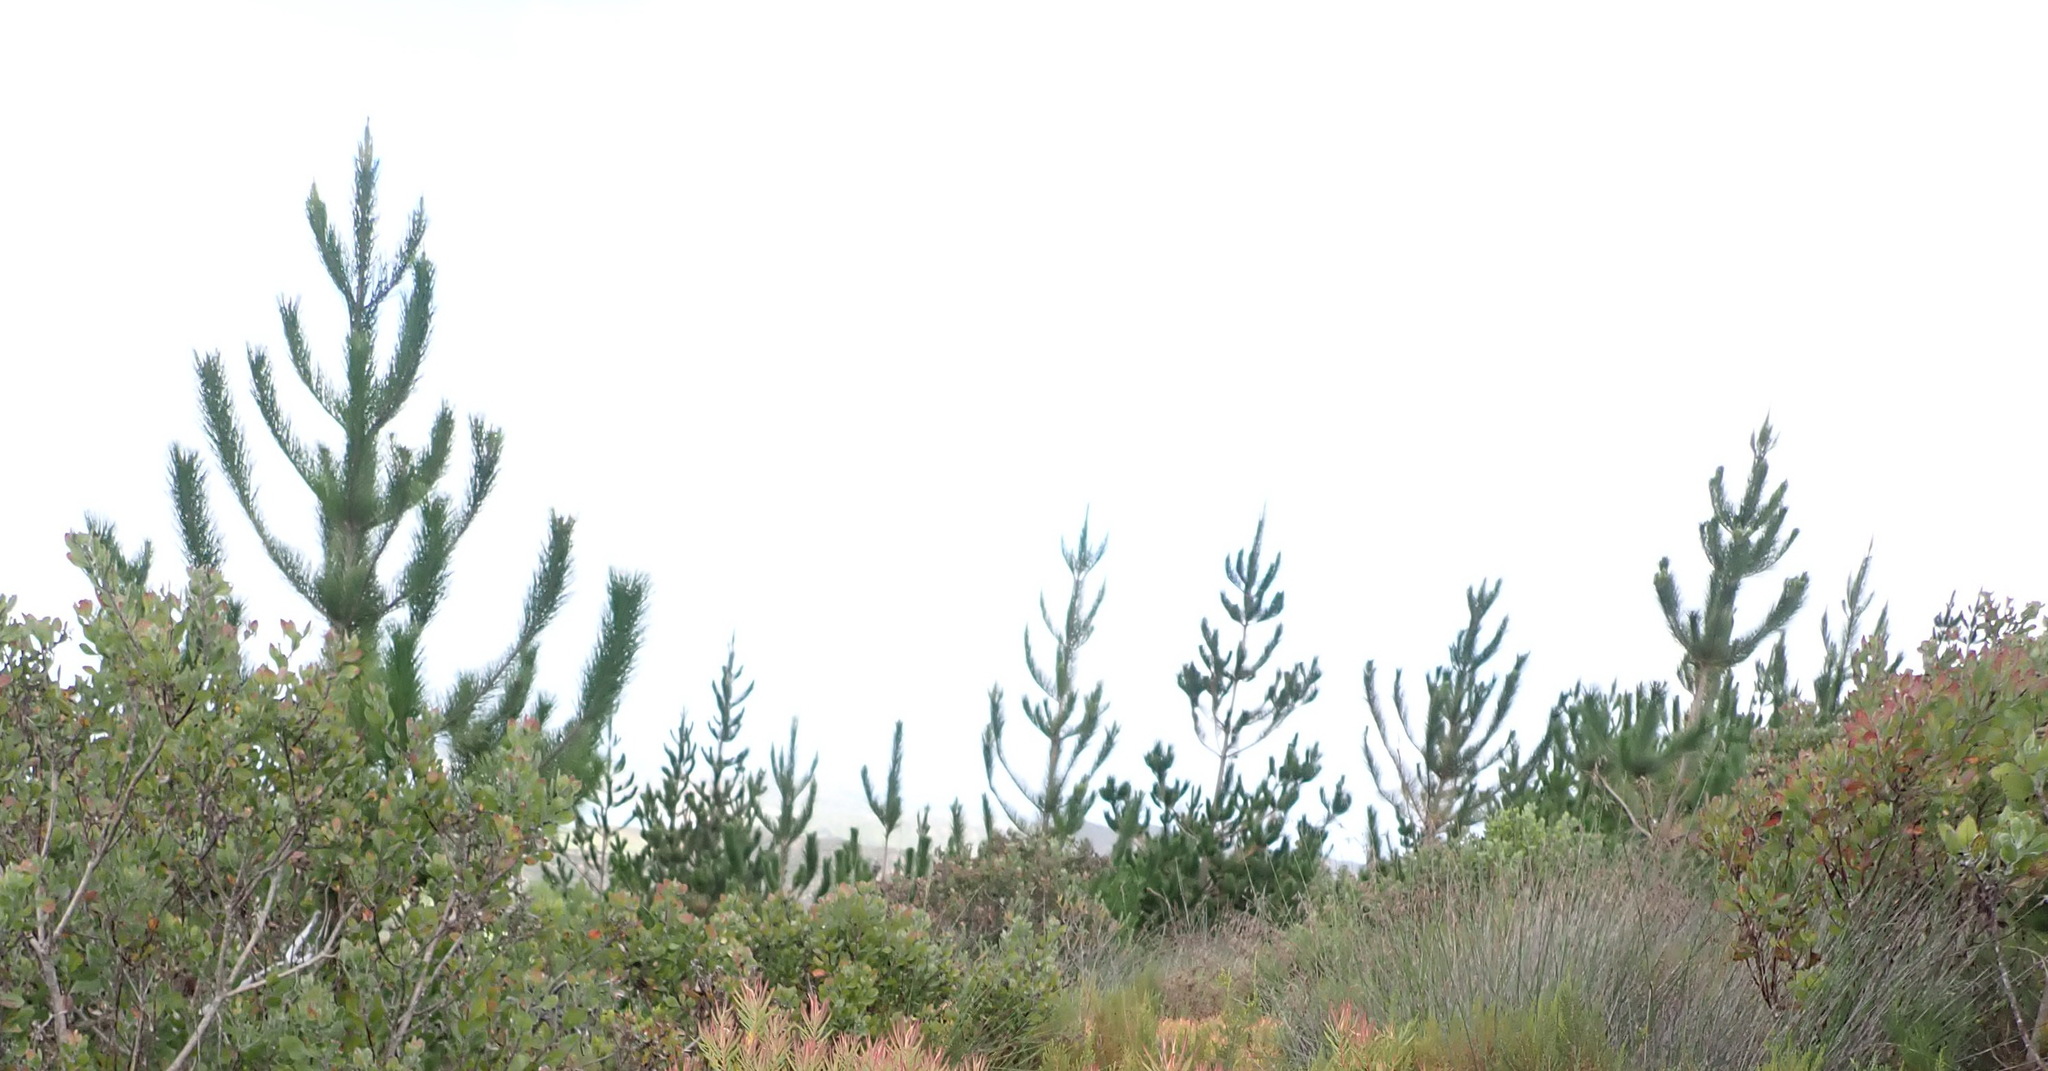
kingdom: Plantae
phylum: Tracheophyta
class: Pinopsida
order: Pinales
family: Pinaceae
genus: Pinus
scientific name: Pinus radiata
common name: Monterey pine
